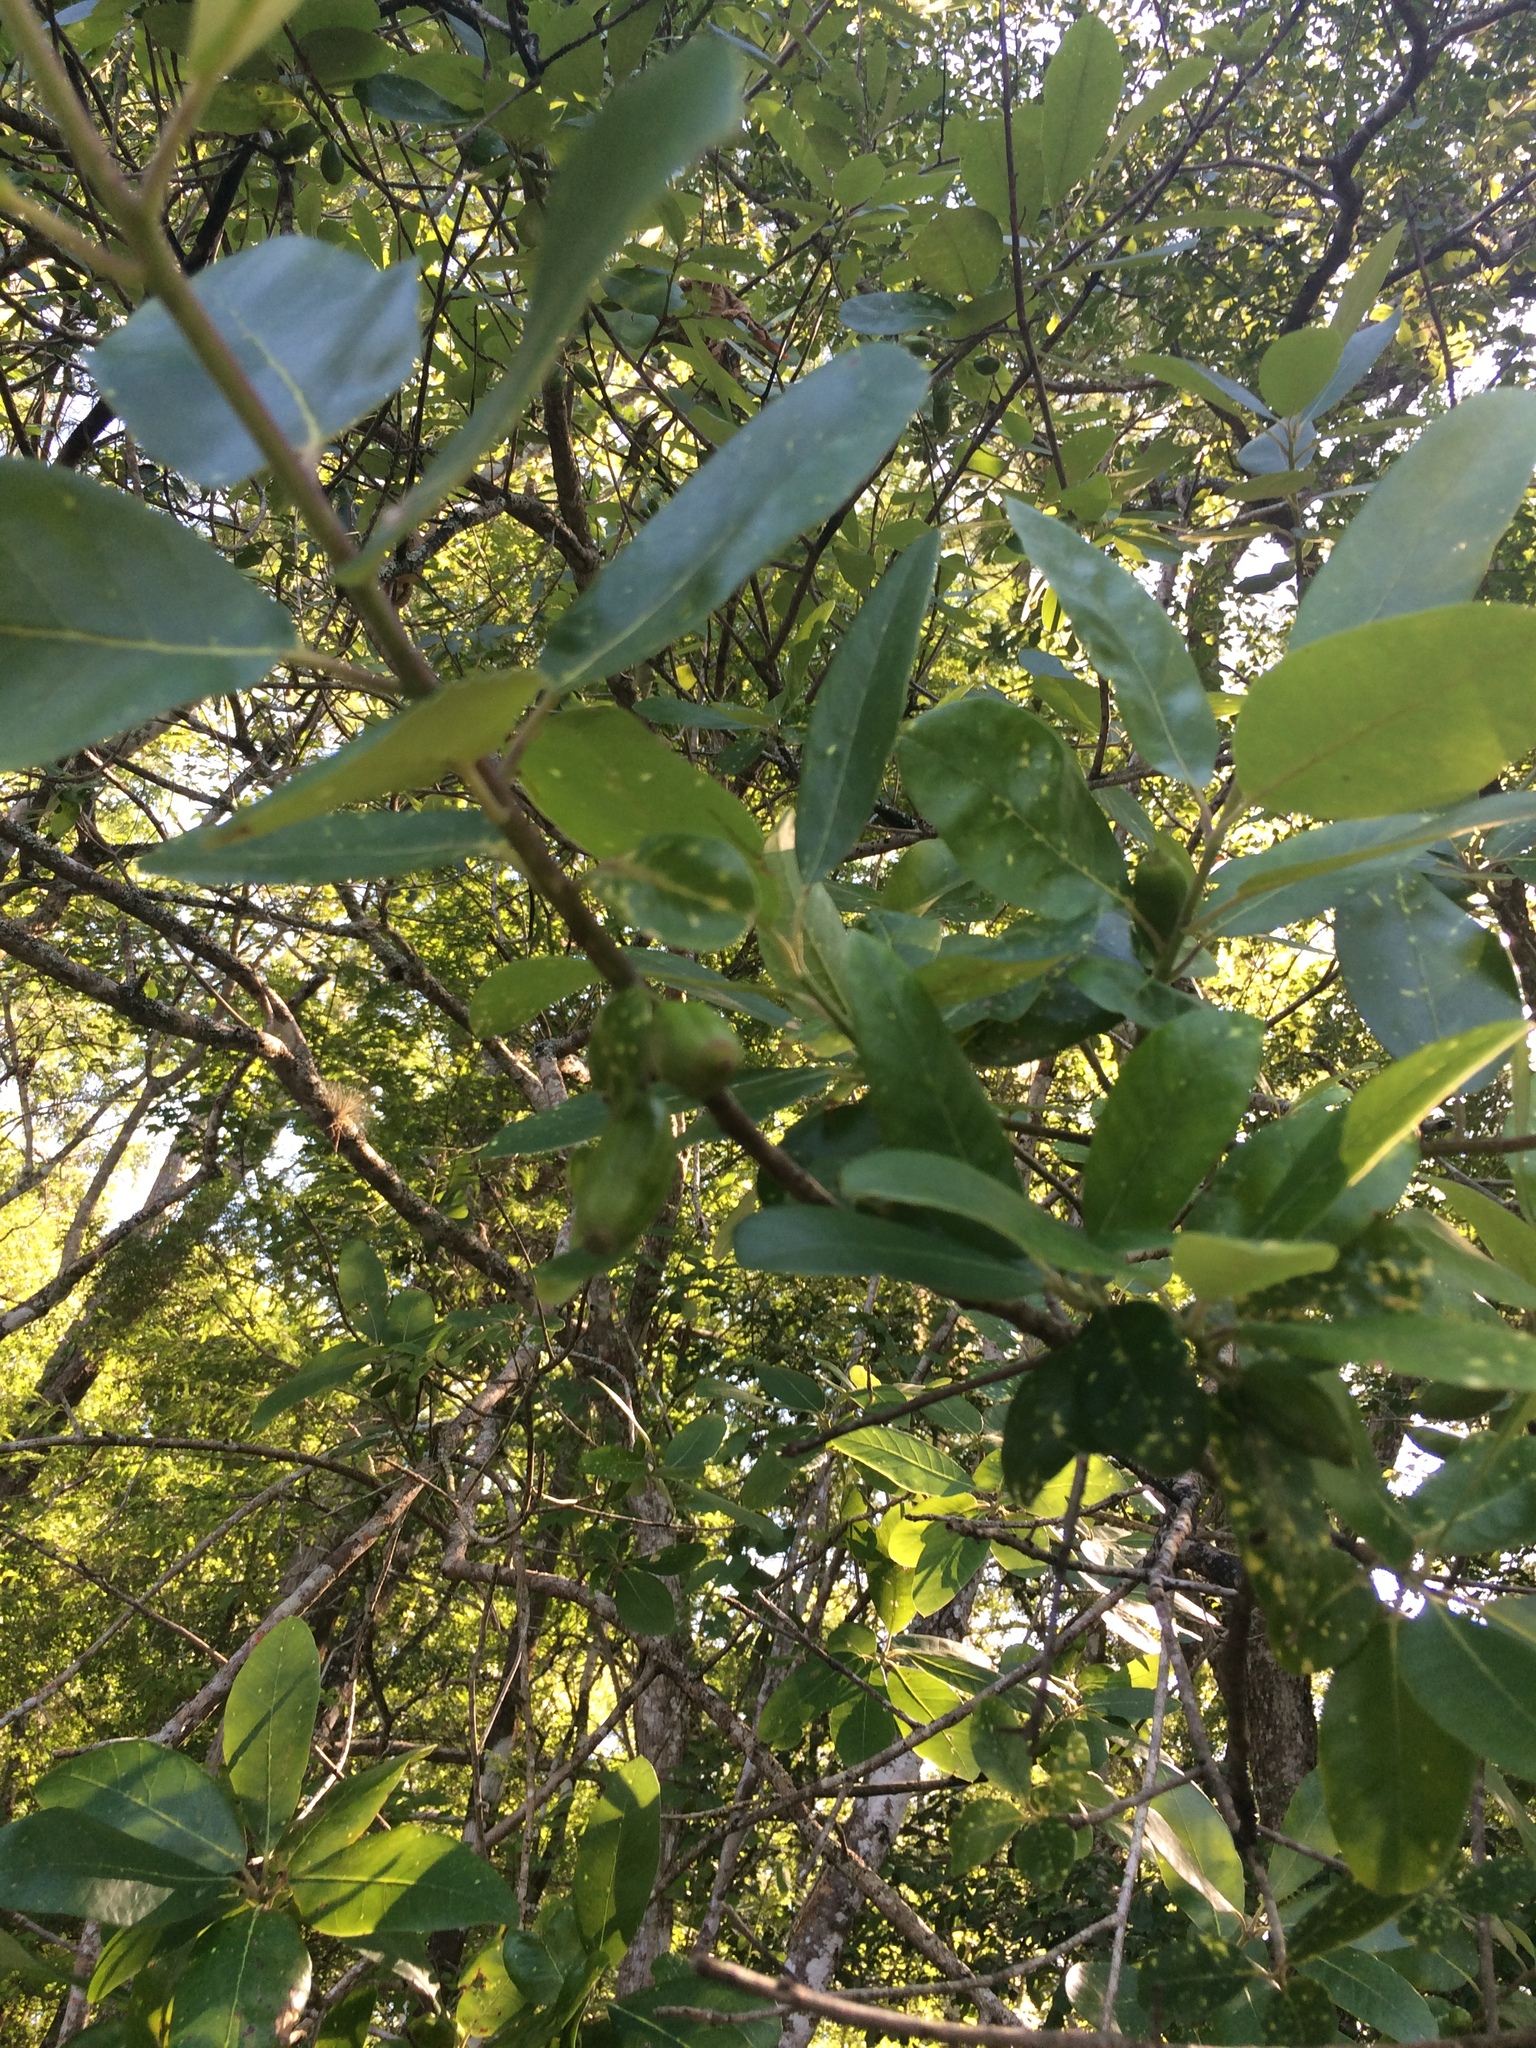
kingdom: Plantae
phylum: Tracheophyta
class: Magnoliopsida
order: Cornales
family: Nyssaceae
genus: Nyssa
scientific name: Nyssa ogeche
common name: Ogeechee tupelo
